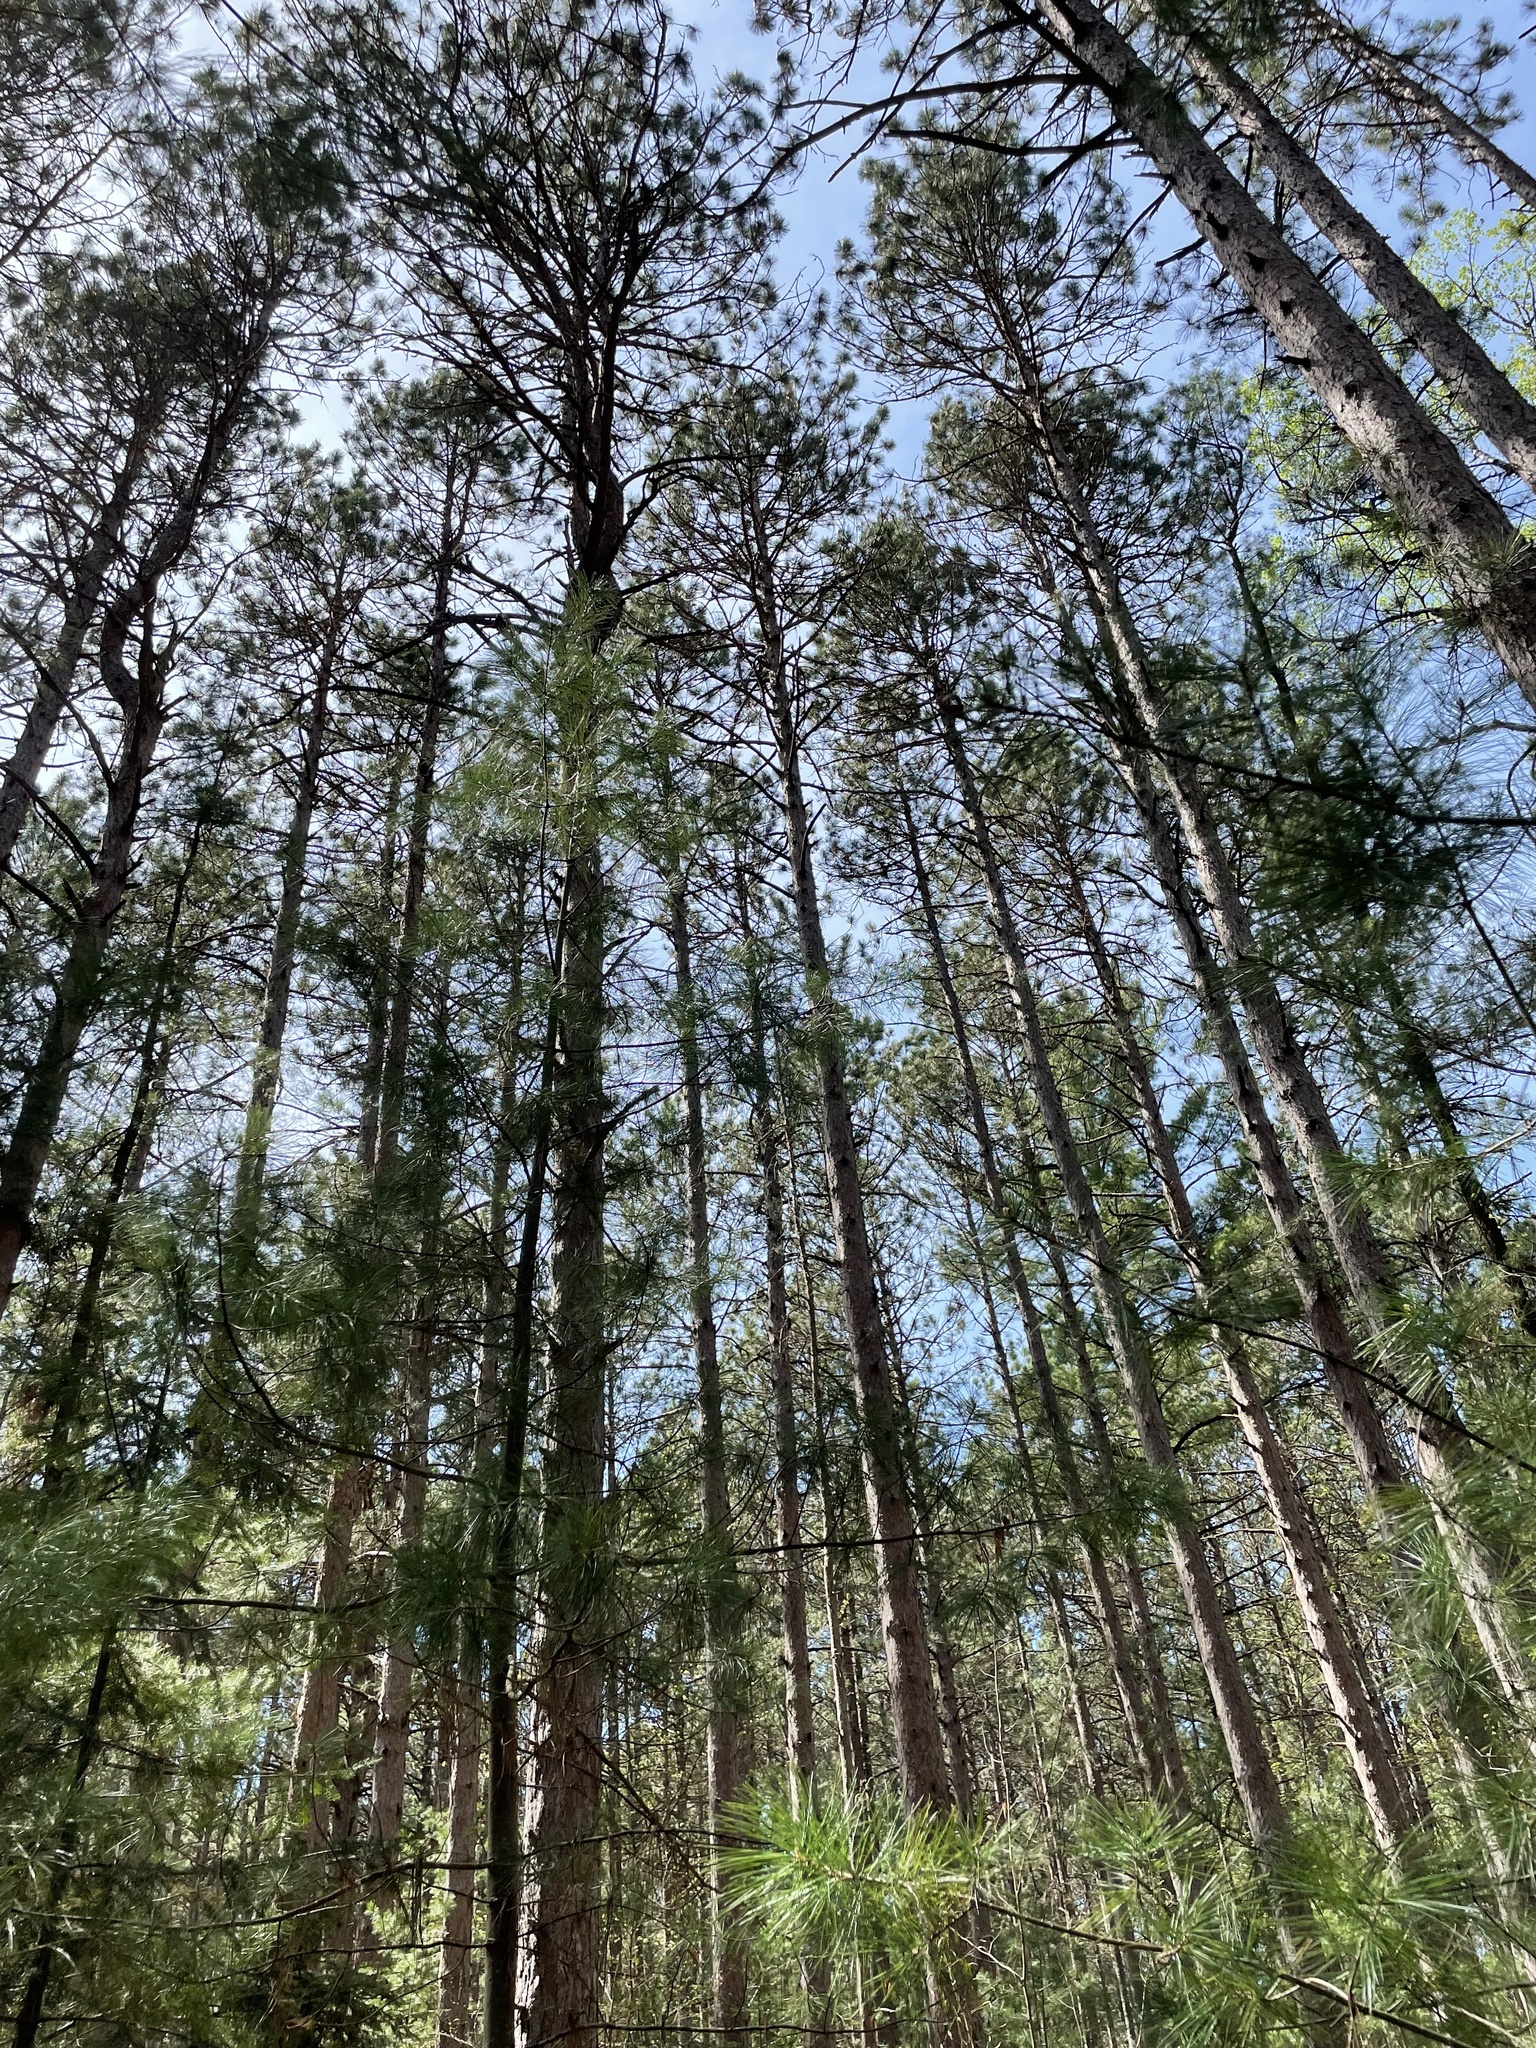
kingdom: Plantae
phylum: Tracheophyta
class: Pinopsida
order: Pinales
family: Pinaceae
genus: Pinus
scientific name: Pinus resinosa
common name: Norway pine
